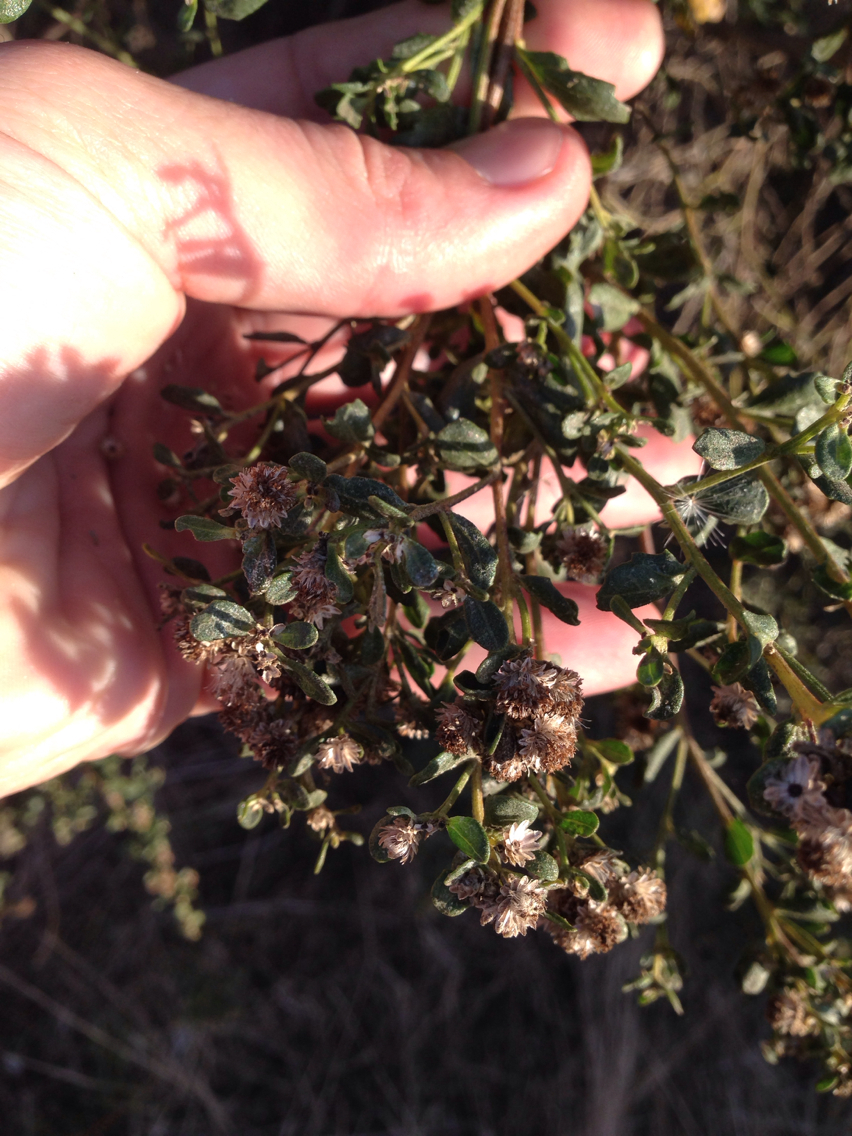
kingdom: Plantae
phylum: Tracheophyta
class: Magnoliopsida
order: Asterales
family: Asteraceae
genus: Baccharis
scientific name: Baccharis pilularis
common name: Coyotebrush
